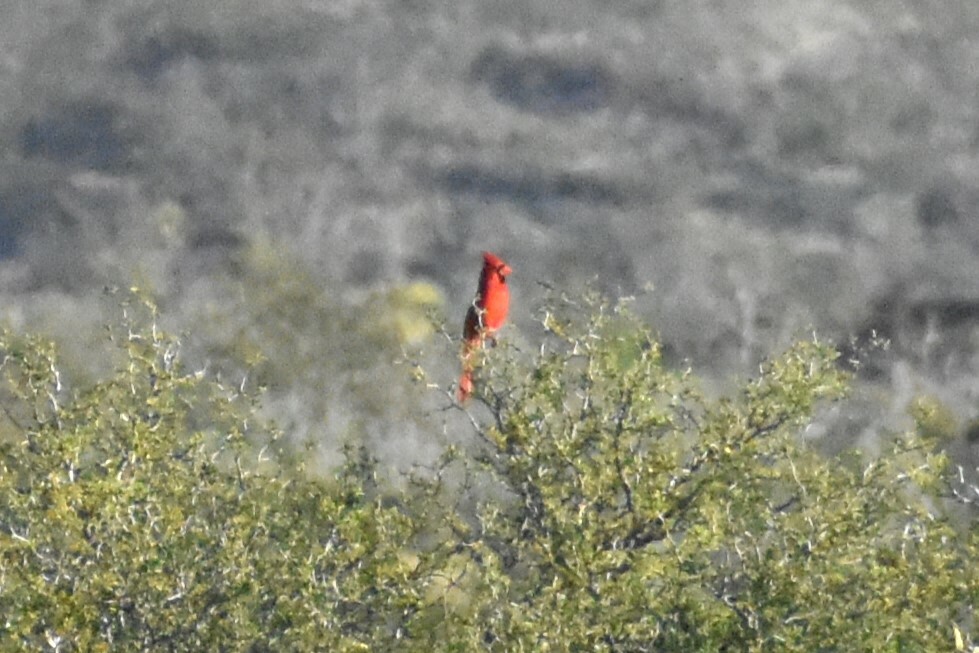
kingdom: Animalia
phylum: Chordata
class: Aves
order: Passeriformes
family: Cardinalidae
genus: Cardinalis
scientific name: Cardinalis cardinalis
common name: Northern cardinal
